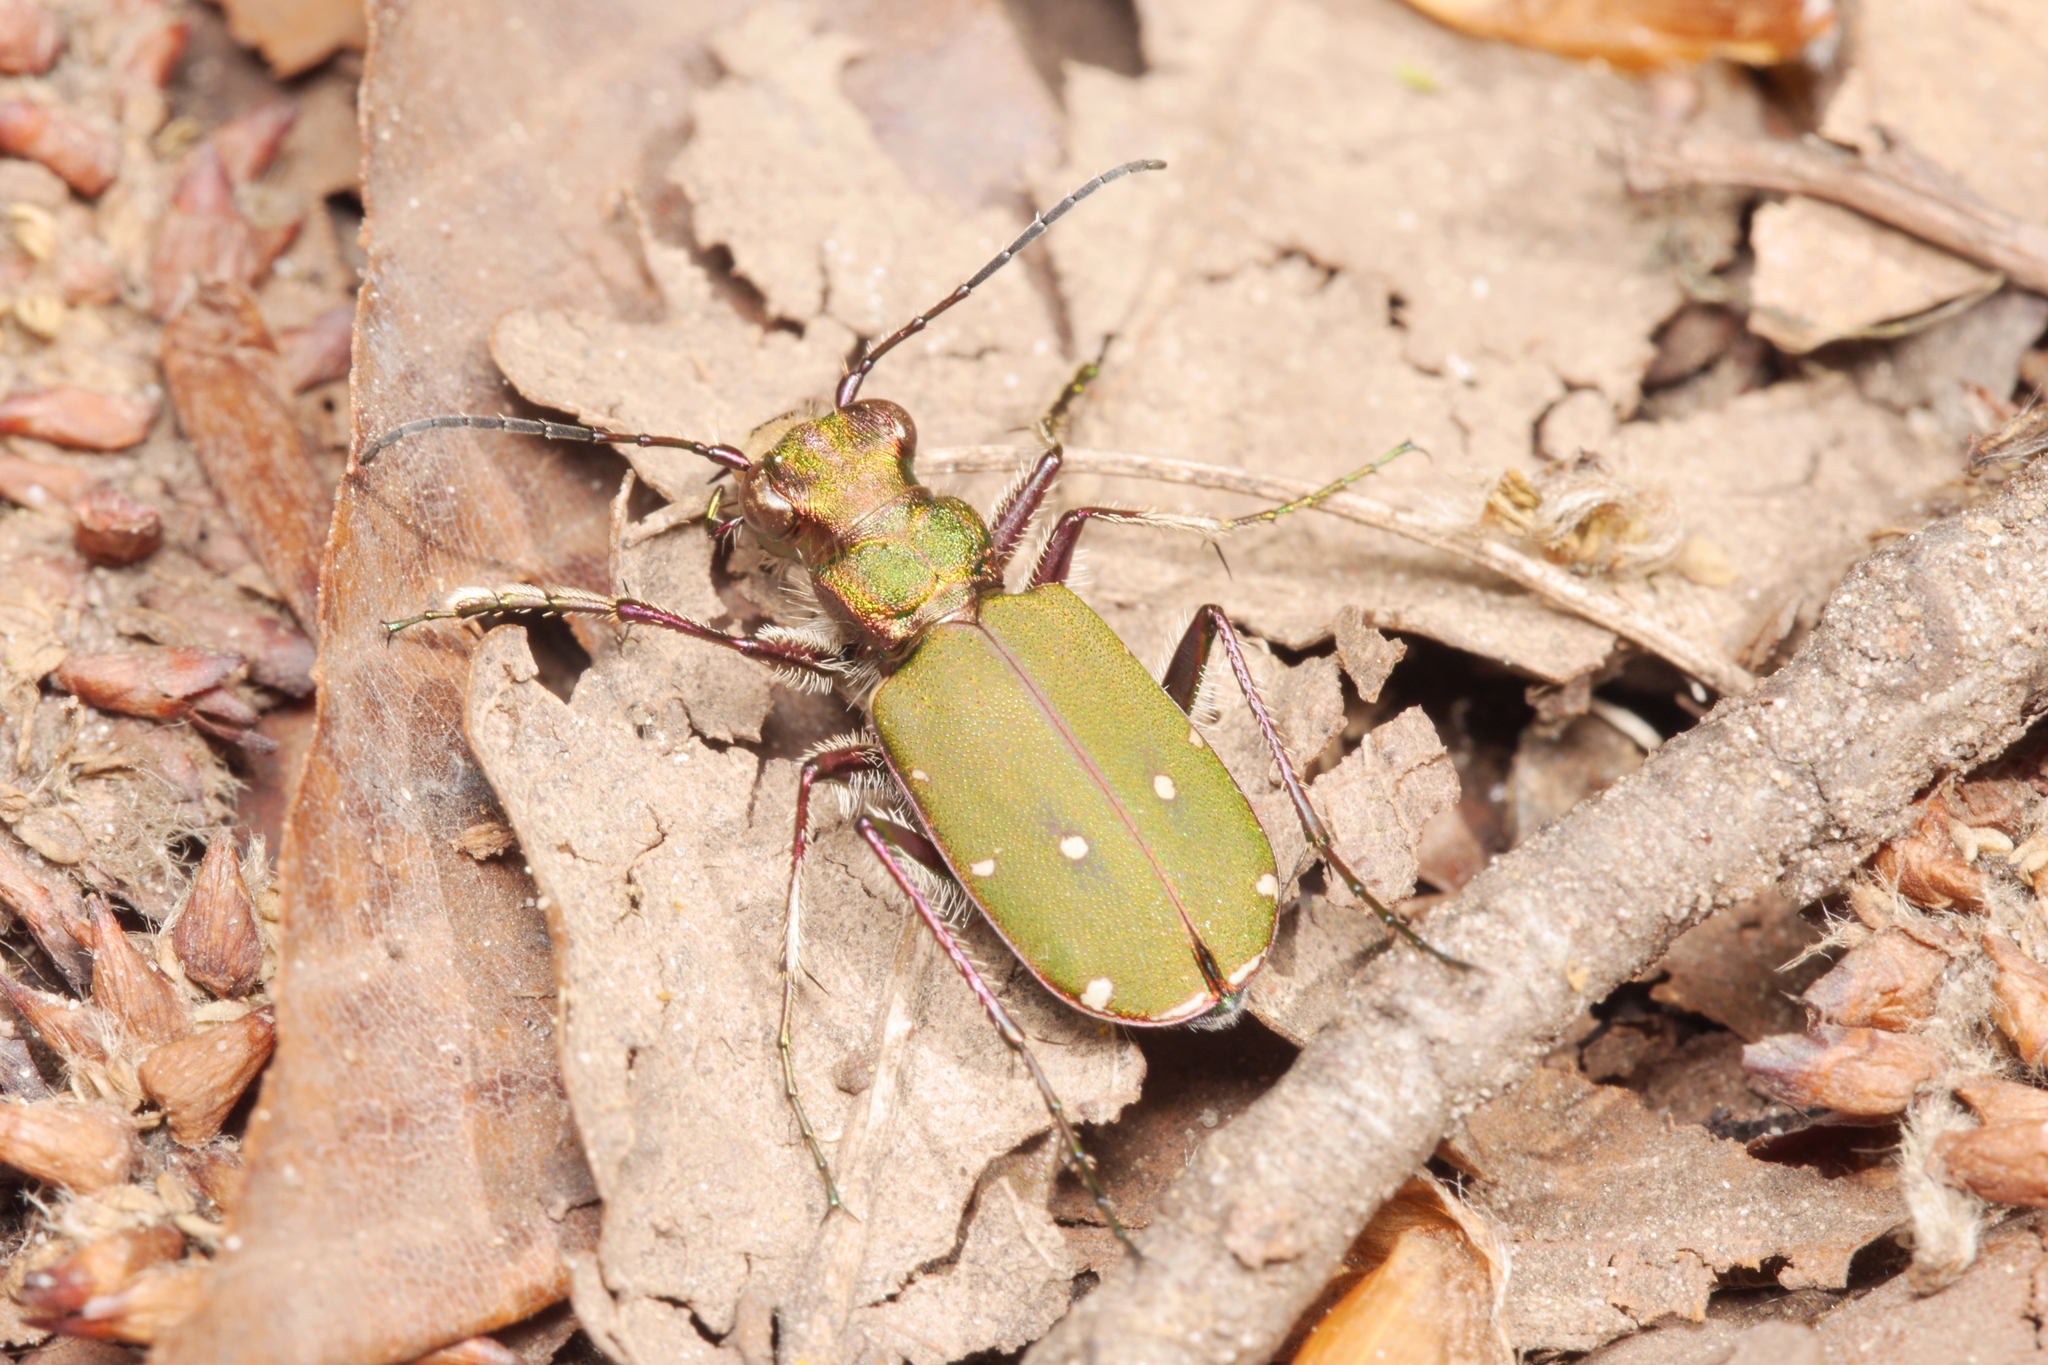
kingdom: Animalia
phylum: Arthropoda
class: Insecta
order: Coleoptera
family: Carabidae
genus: Cicindela
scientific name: Cicindela campestris
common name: Common tiger beetle
